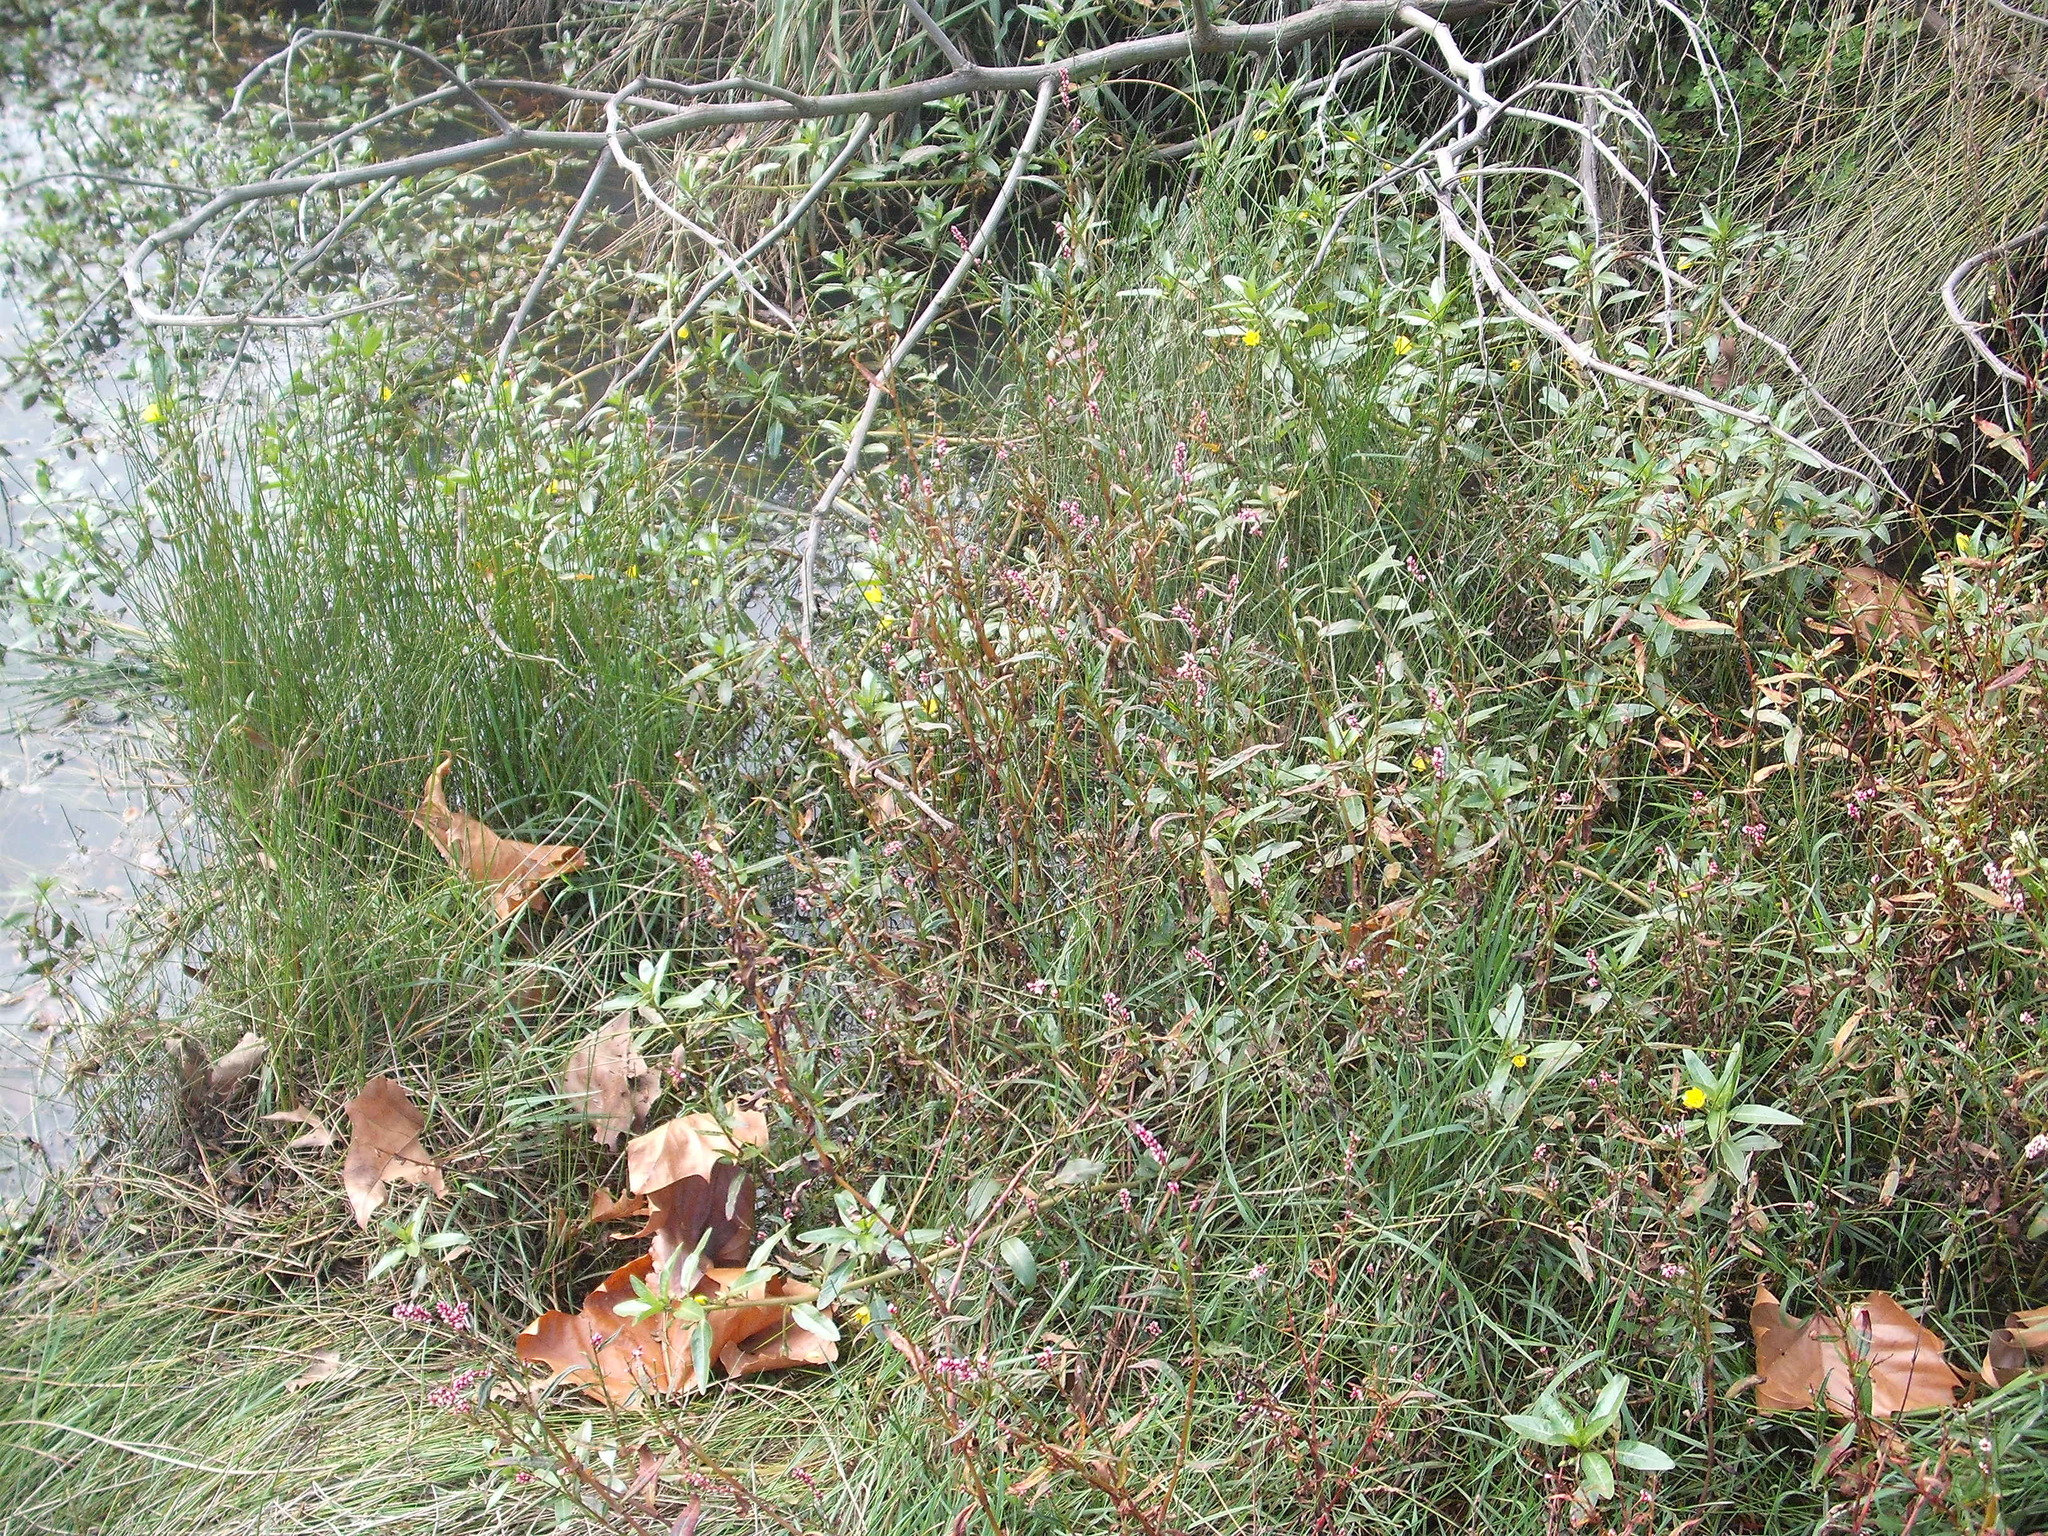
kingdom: Plantae
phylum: Tracheophyta
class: Magnoliopsida
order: Myrtales
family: Onagraceae
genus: Ludwigia
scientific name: Ludwigia peploides
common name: Floating primrose-willow
